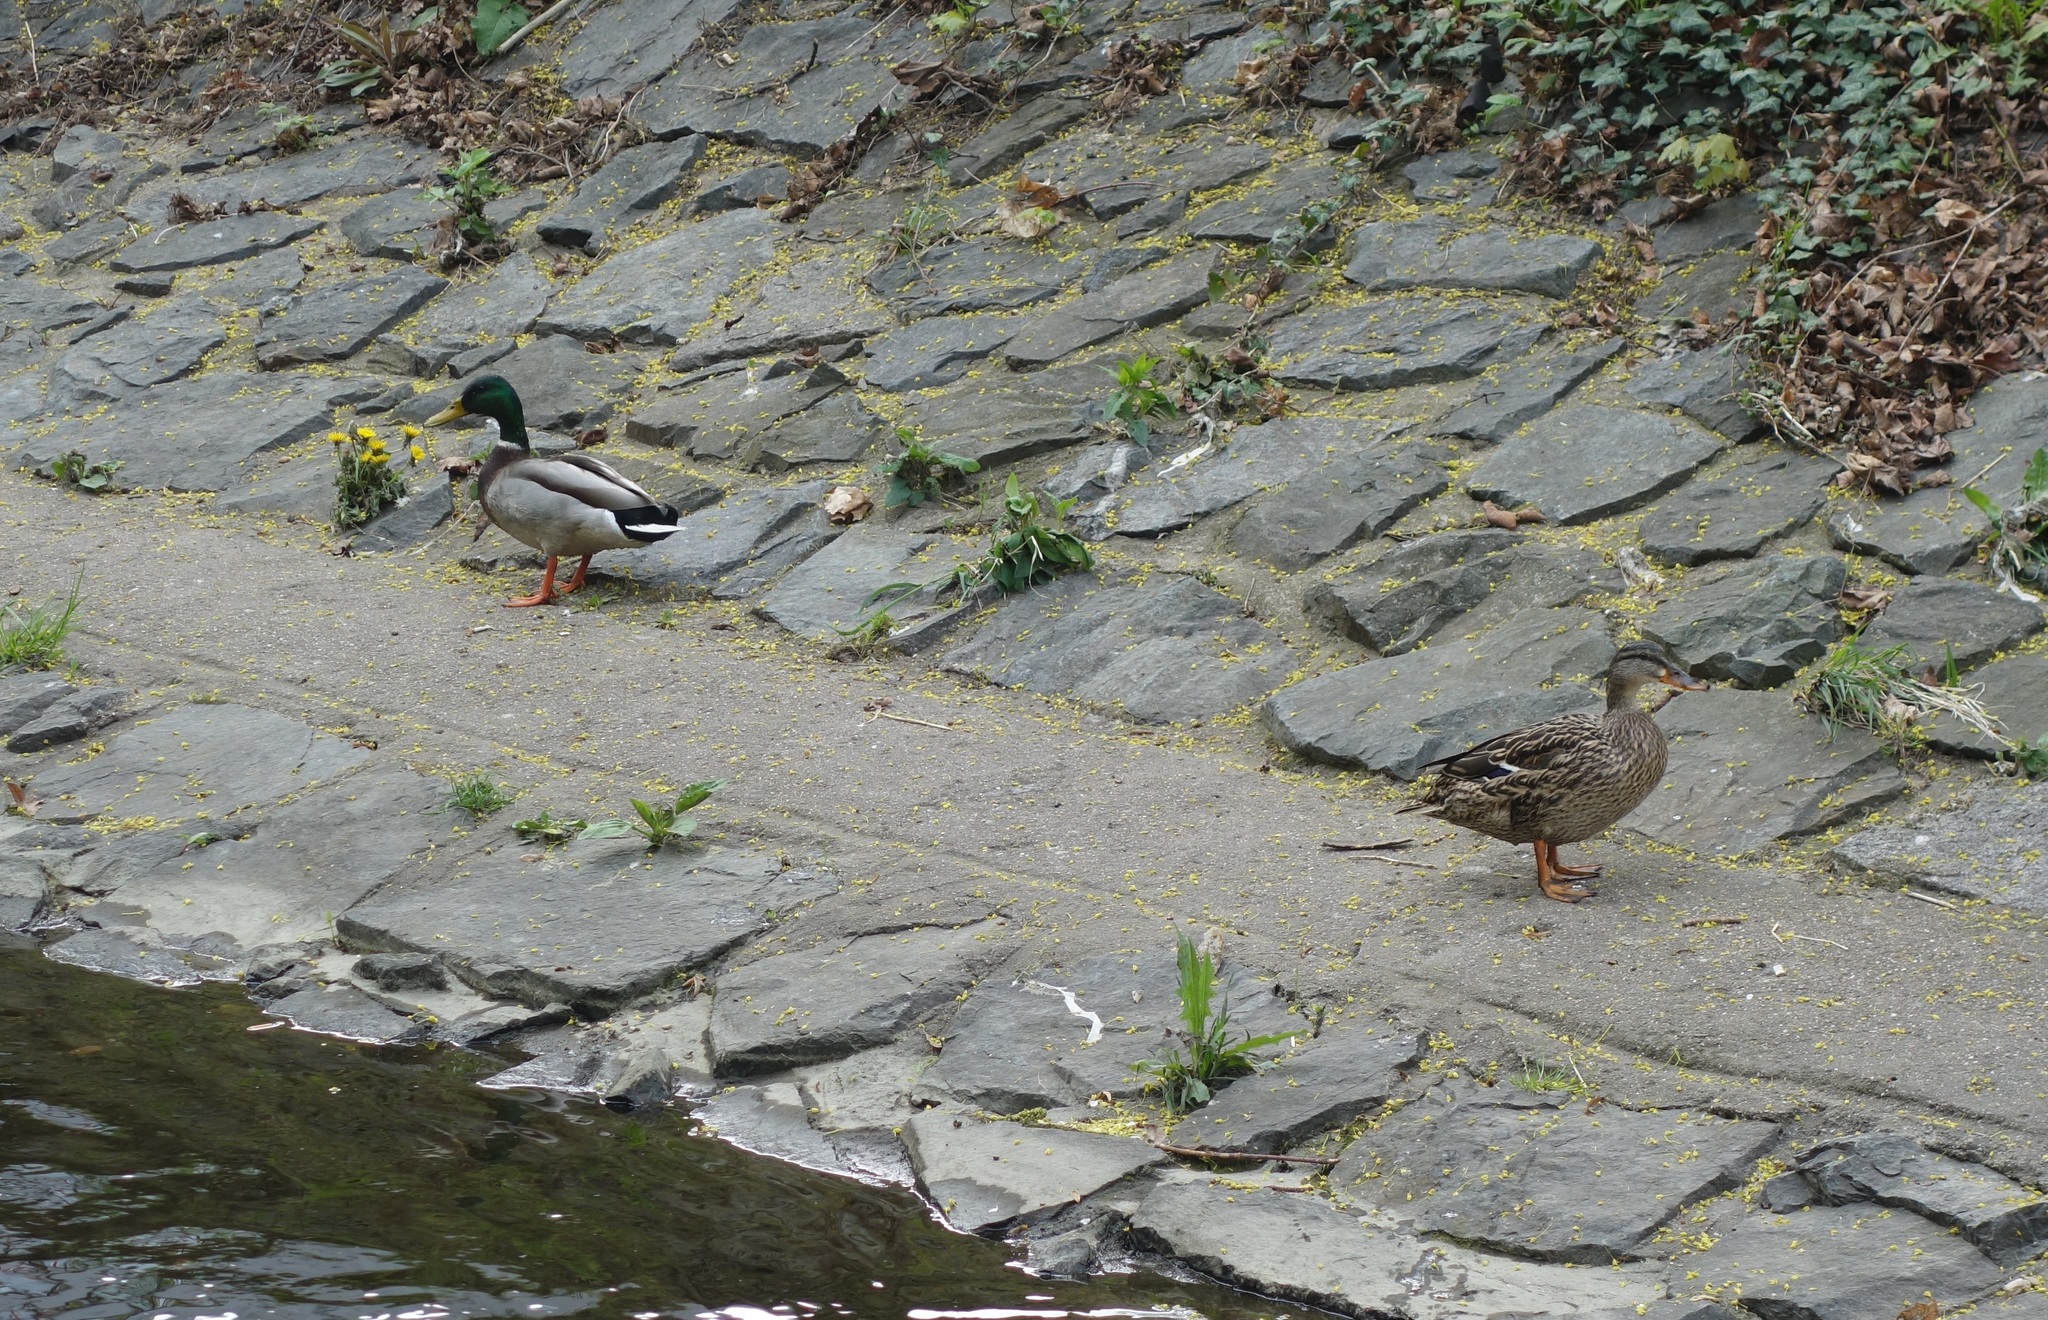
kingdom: Animalia
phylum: Chordata
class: Aves
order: Anseriformes
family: Anatidae
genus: Anas
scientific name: Anas platyrhynchos
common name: Mallard
